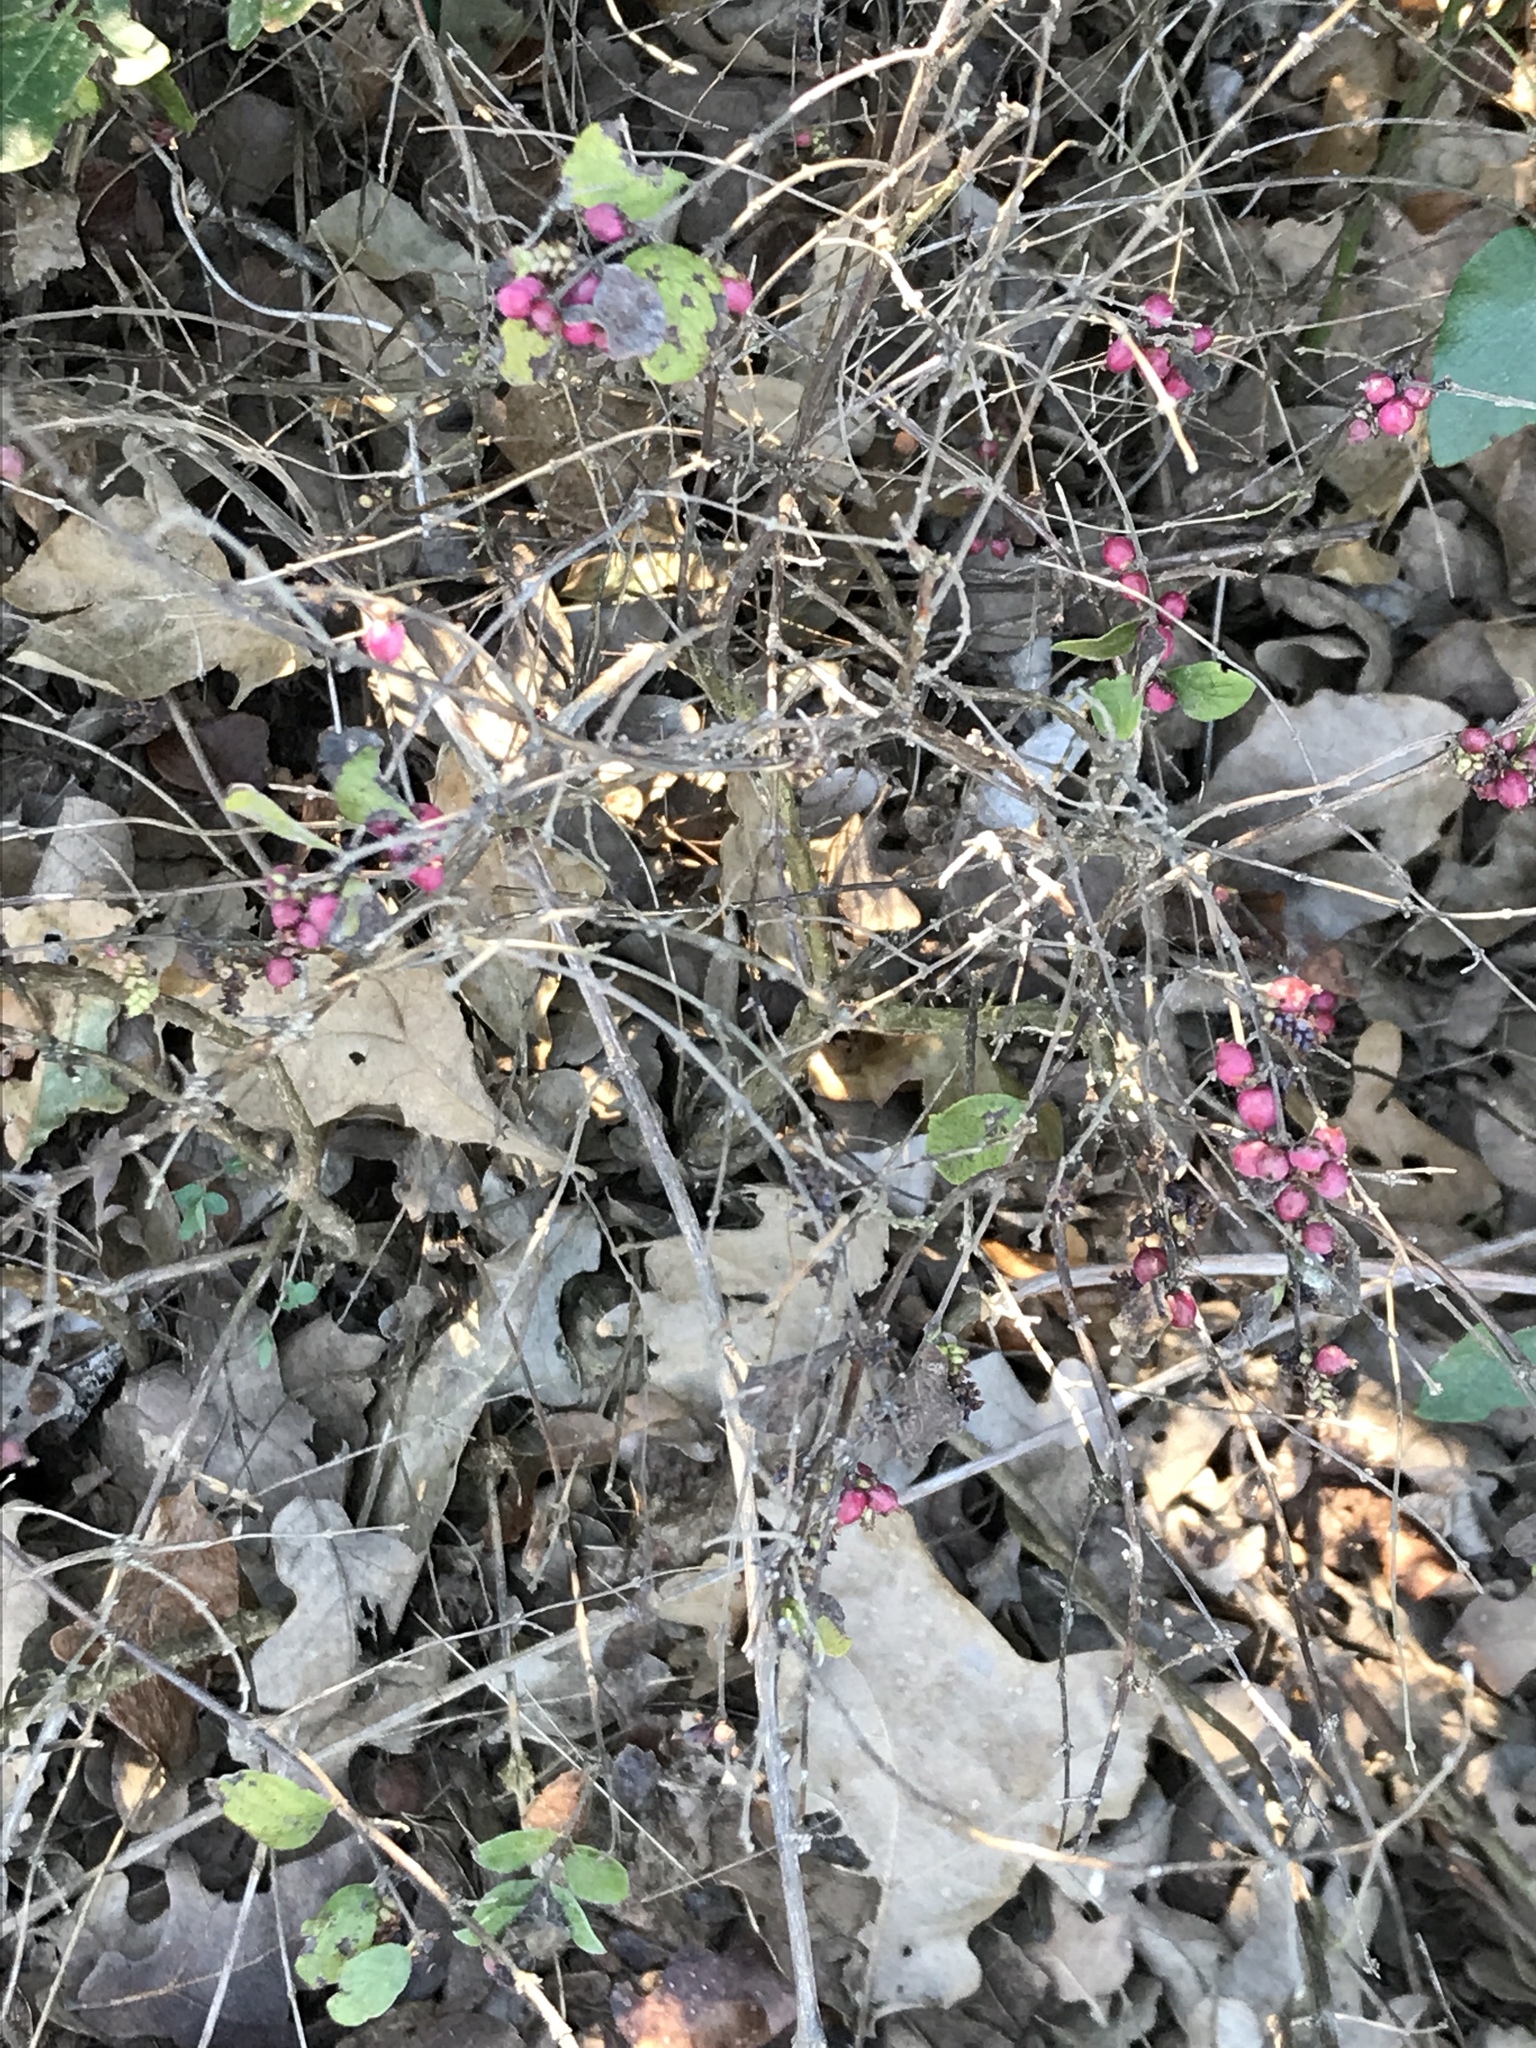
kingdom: Plantae
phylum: Tracheophyta
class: Magnoliopsida
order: Dipsacales
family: Caprifoliaceae
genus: Symphoricarpos
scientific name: Symphoricarpos orbiculatus
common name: Coralberry
